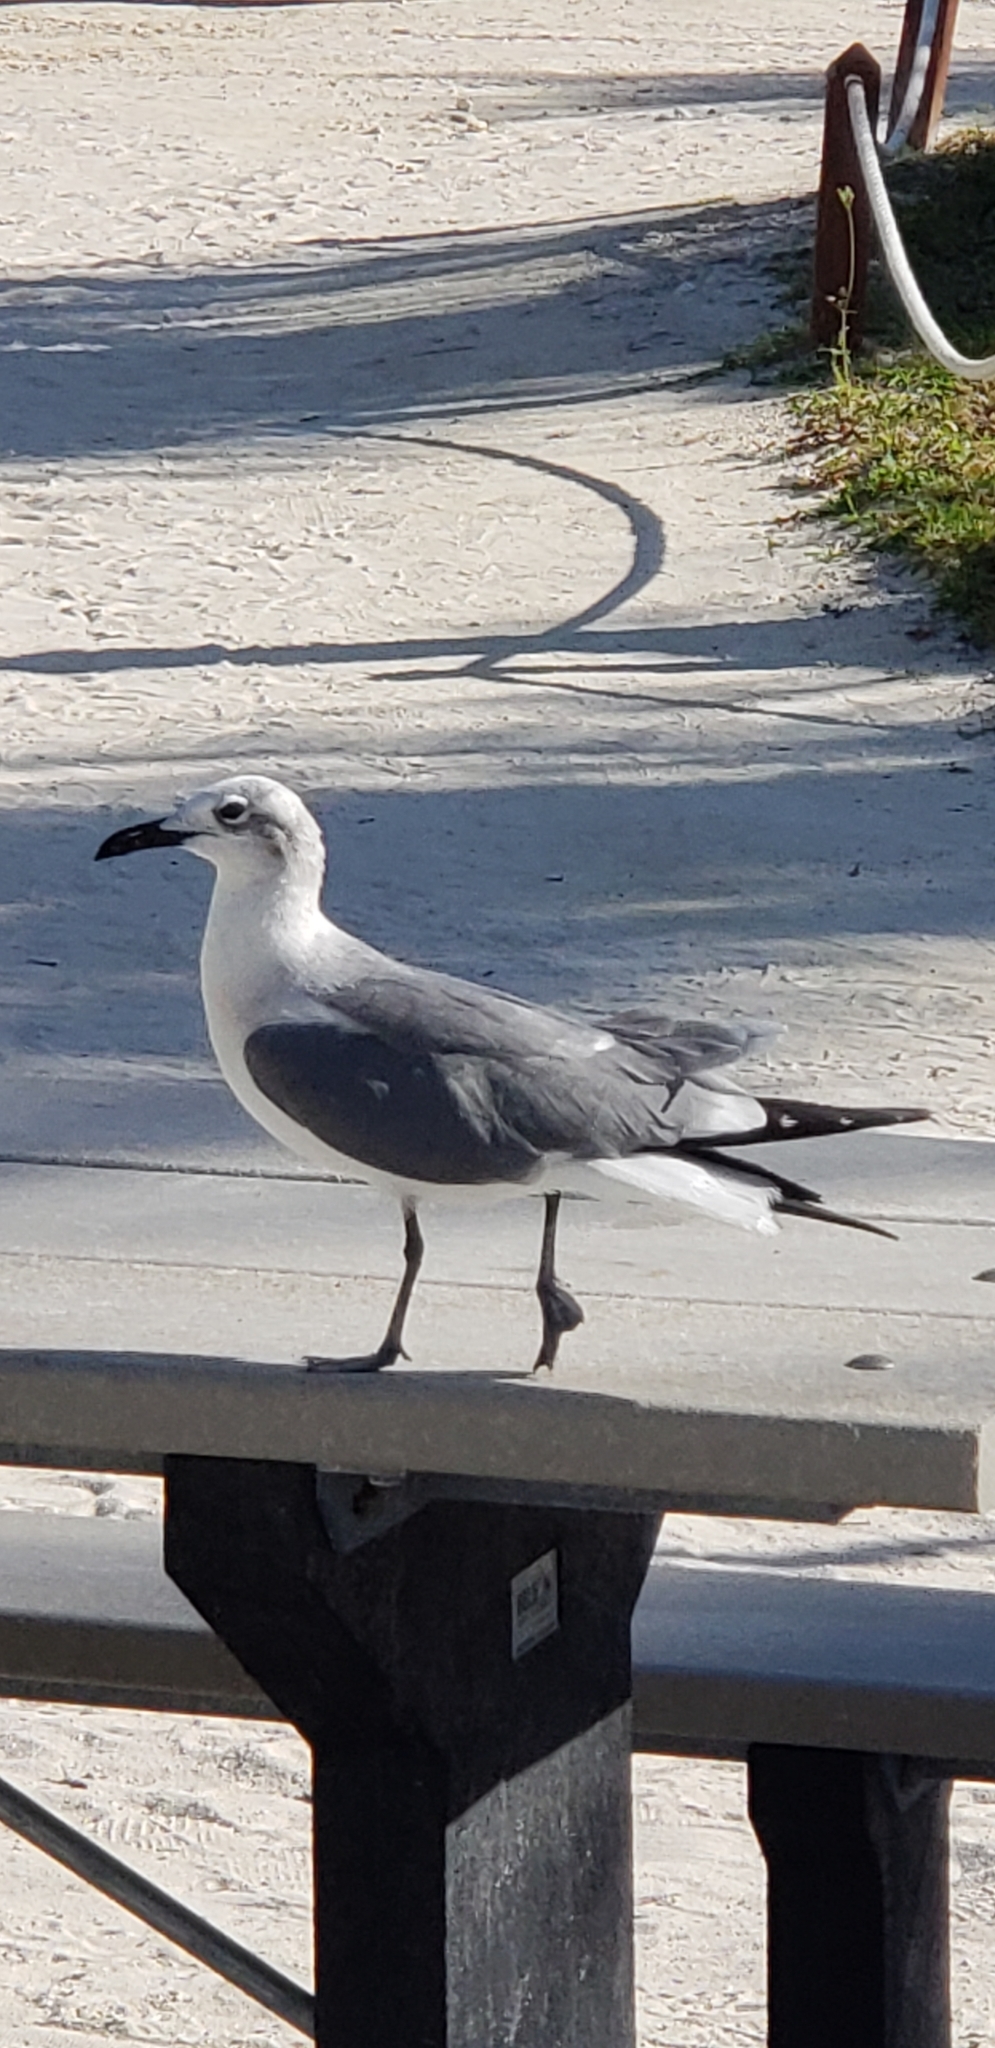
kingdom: Animalia
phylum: Chordata
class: Aves
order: Charadriiformes
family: Laridae
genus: Leucophaeus
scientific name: Leucophaeus atricilla
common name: Laughing gull
